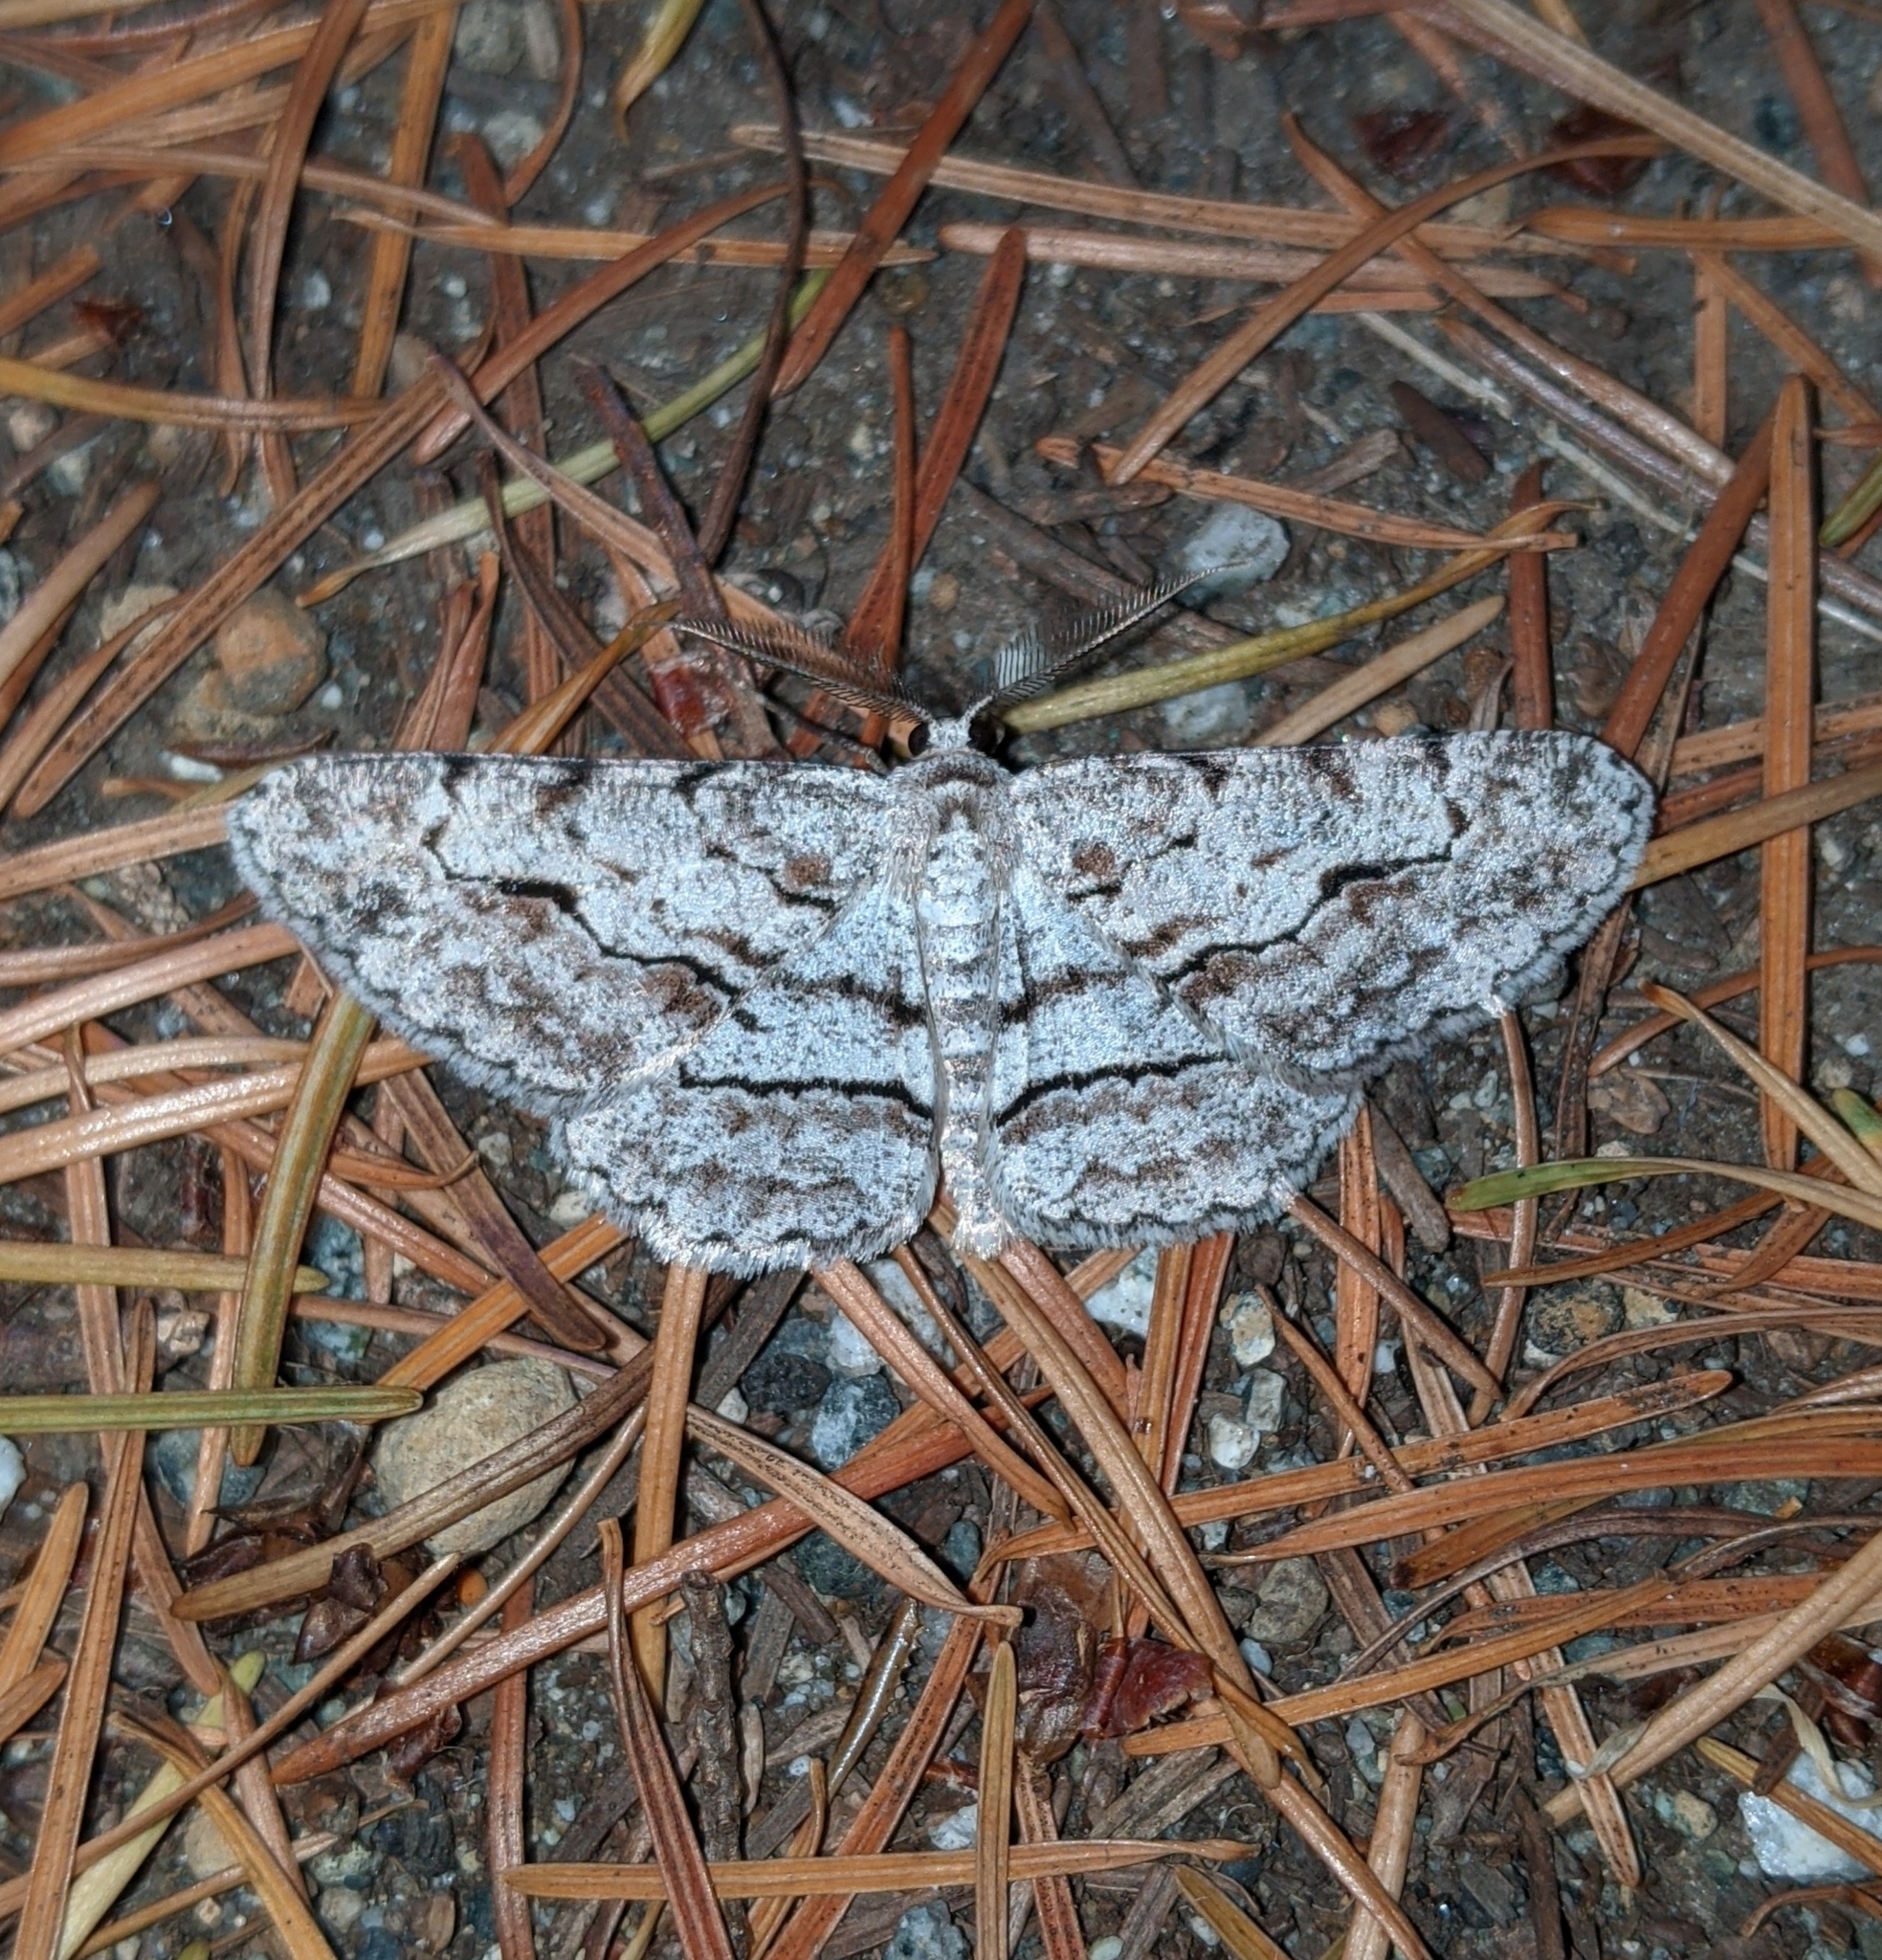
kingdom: Animalia
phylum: Arthropoda
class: Insecta
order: Lepidoptera
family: Geometridae
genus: Neoalcis
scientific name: Neoalcis californiaria
